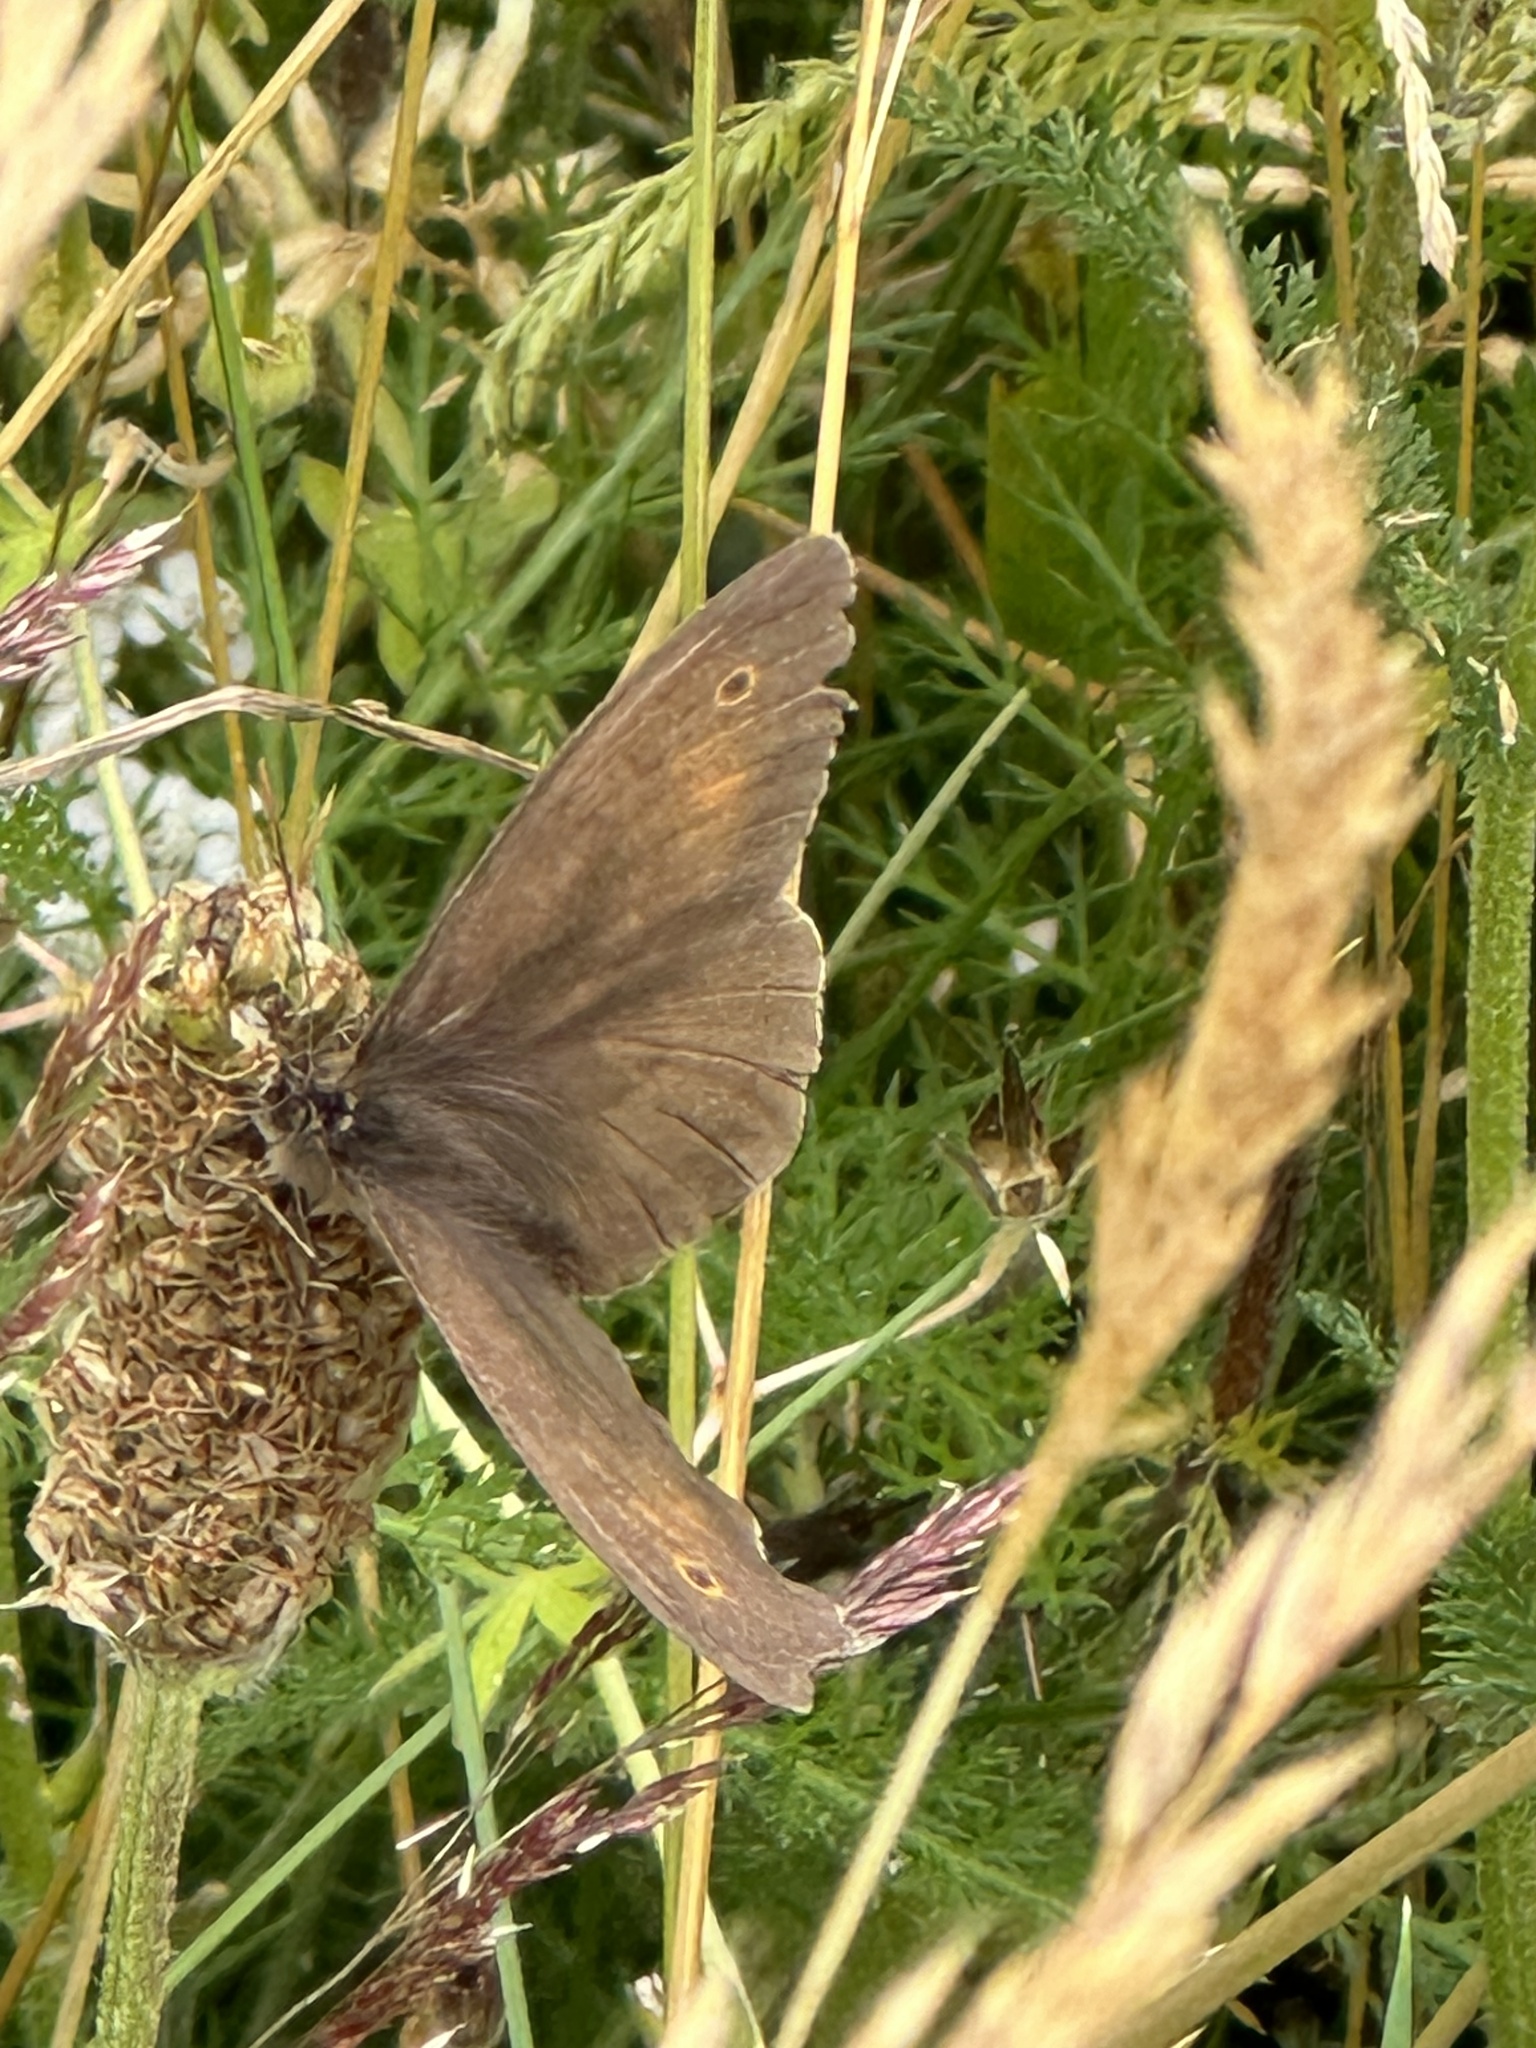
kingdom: Animalia
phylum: Arthropoda
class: Insecta
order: Lepidoptera
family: Nymphalidae
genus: Maniola
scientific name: Maniola jurtina
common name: Meadow brown
